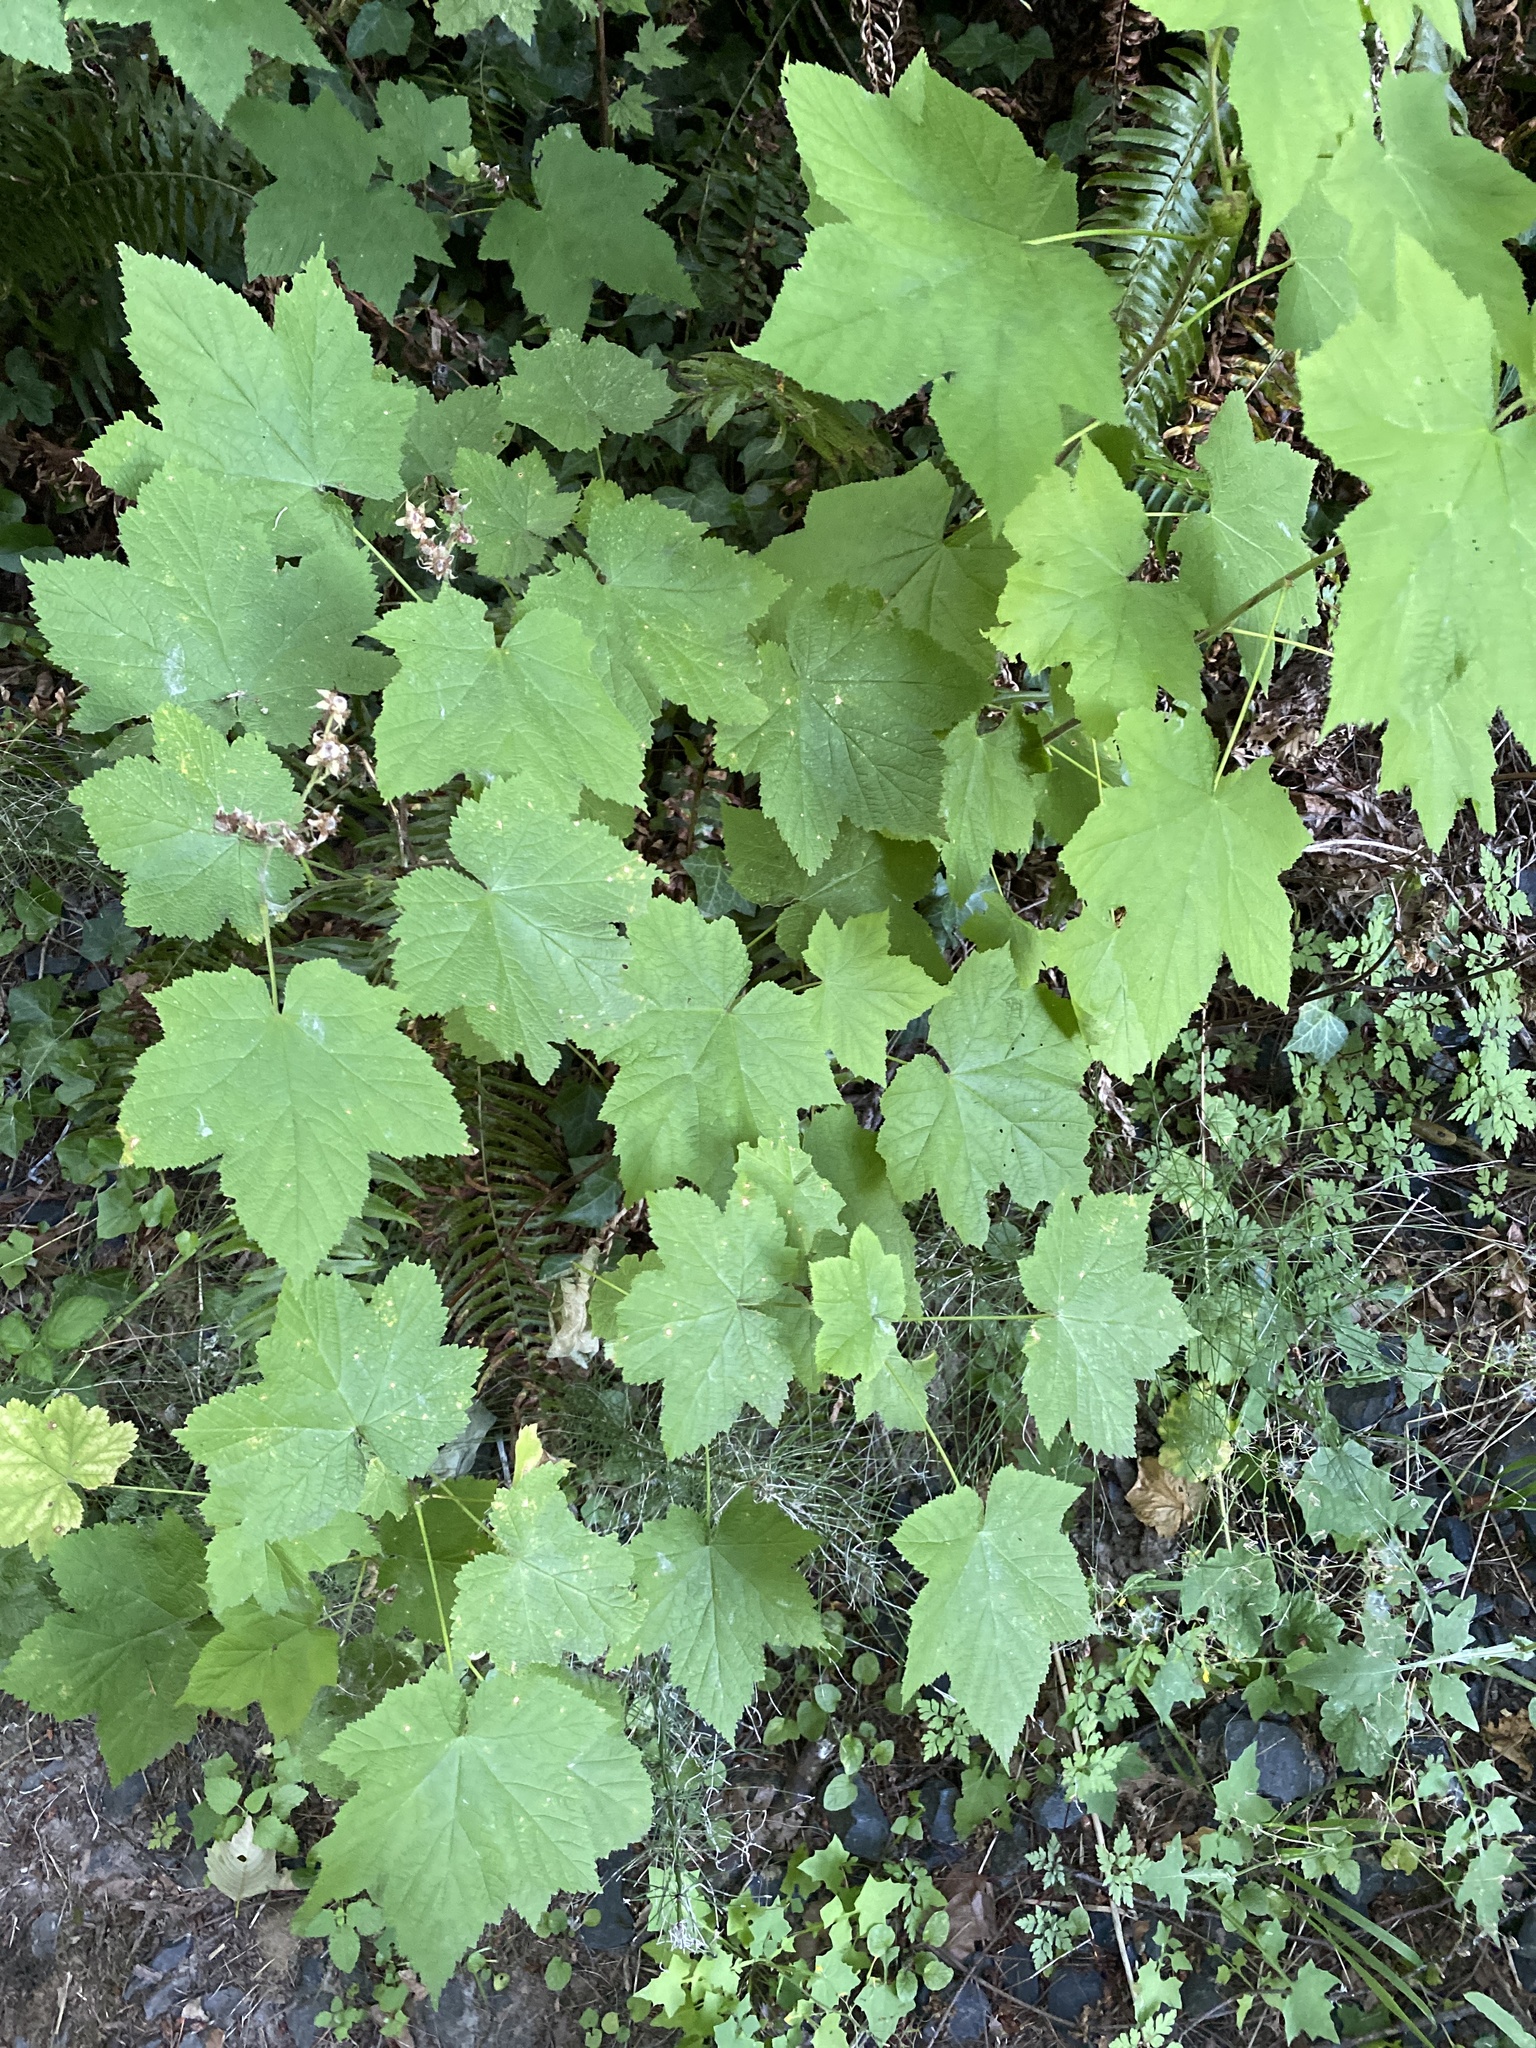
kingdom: Plantae
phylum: Tracheophyta
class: Magnoliopsida
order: Rosales
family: Rosaceae
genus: Rubus
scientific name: Rubus parviflorus
